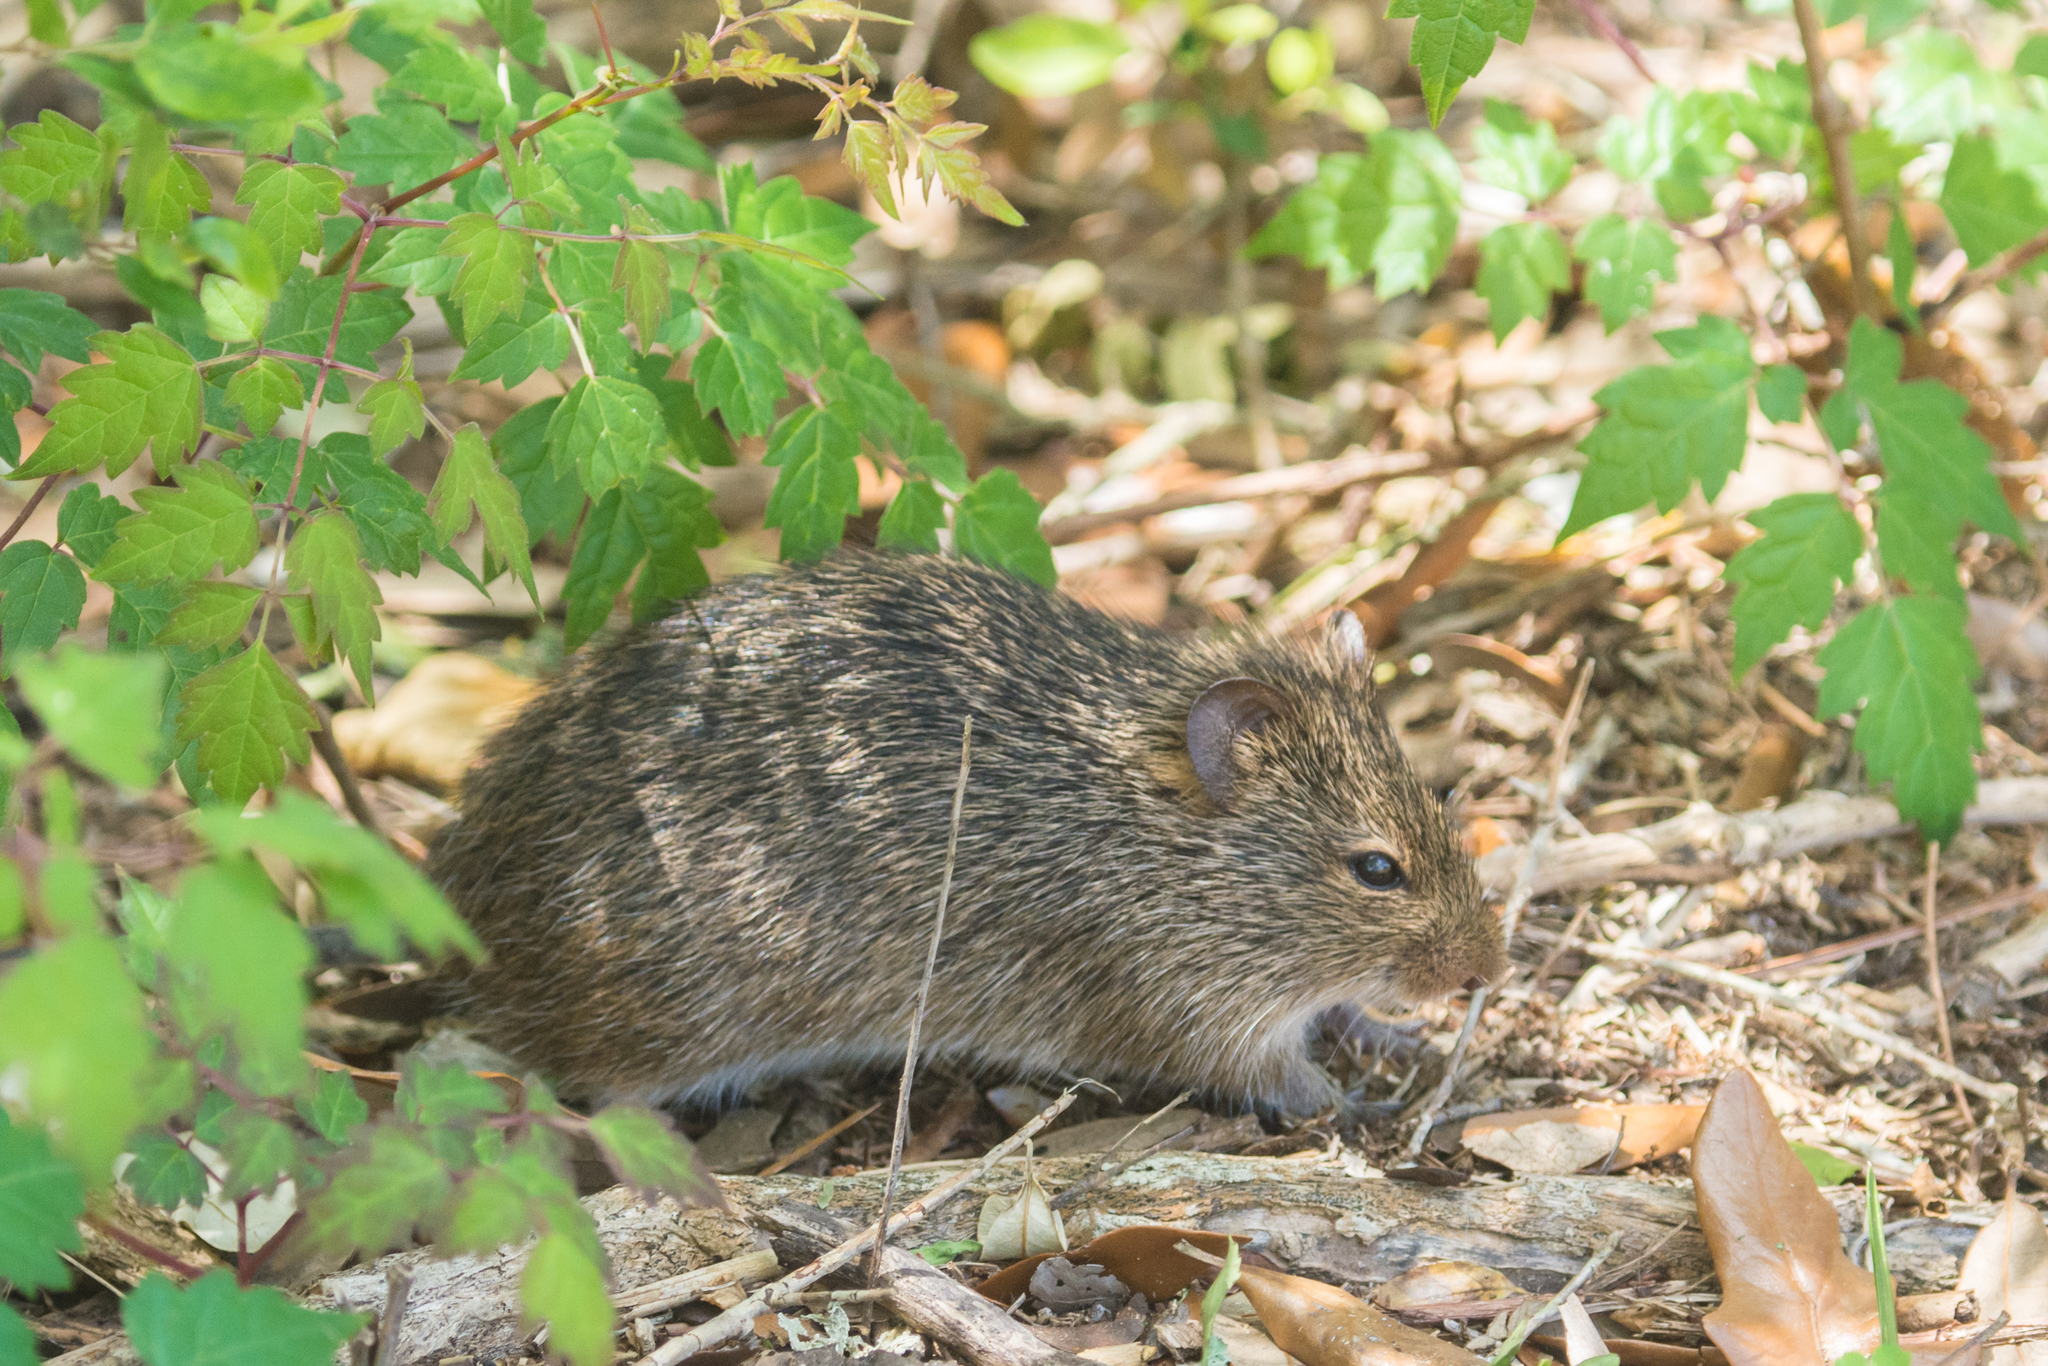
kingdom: Animalia
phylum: Chordata
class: Mammalia
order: Rodentia
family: Cricetidae
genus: Sigmodon
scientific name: Sigmodon hispidus
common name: Hispid cotton rat
